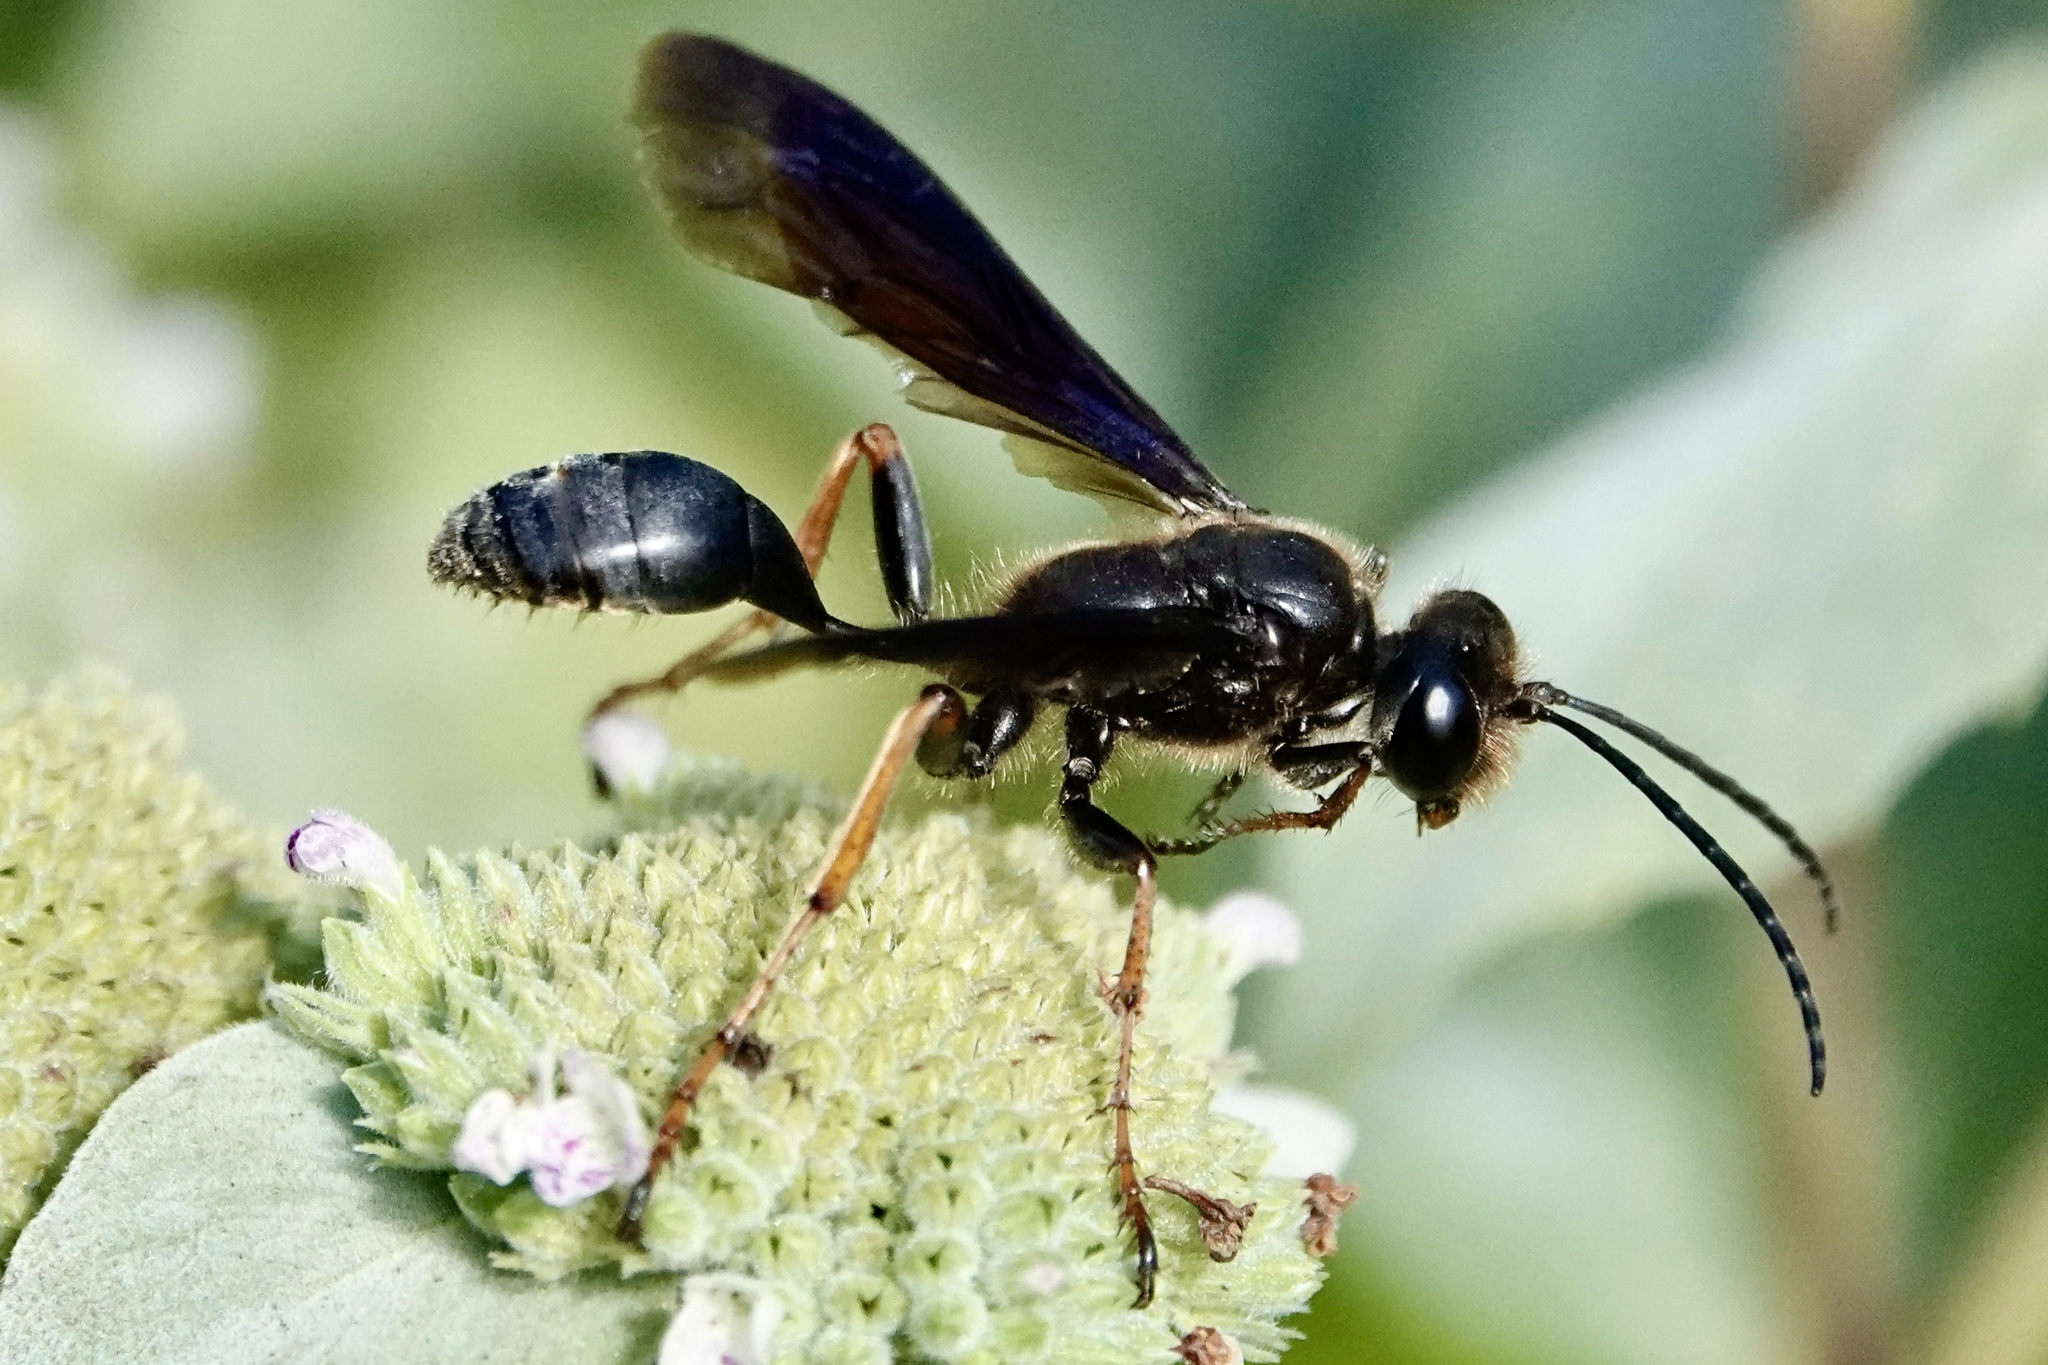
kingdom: Animalia
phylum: Arthropoda
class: Insecta
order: Hymenoptera
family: Sphecidae
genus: Isodontia
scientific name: Isodontia auripes
